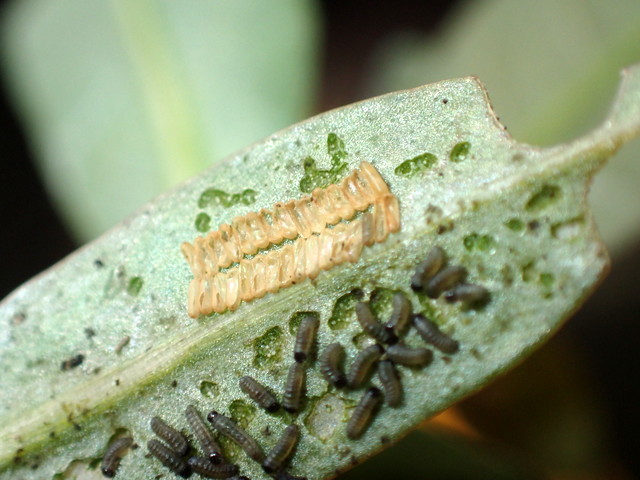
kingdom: Animalia
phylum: Arthropoda
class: Insecta
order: Coleoptera
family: Chrysomelidae
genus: Agasicles
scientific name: Agasicles hygrophila
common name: Alligatorweed flea beetle
